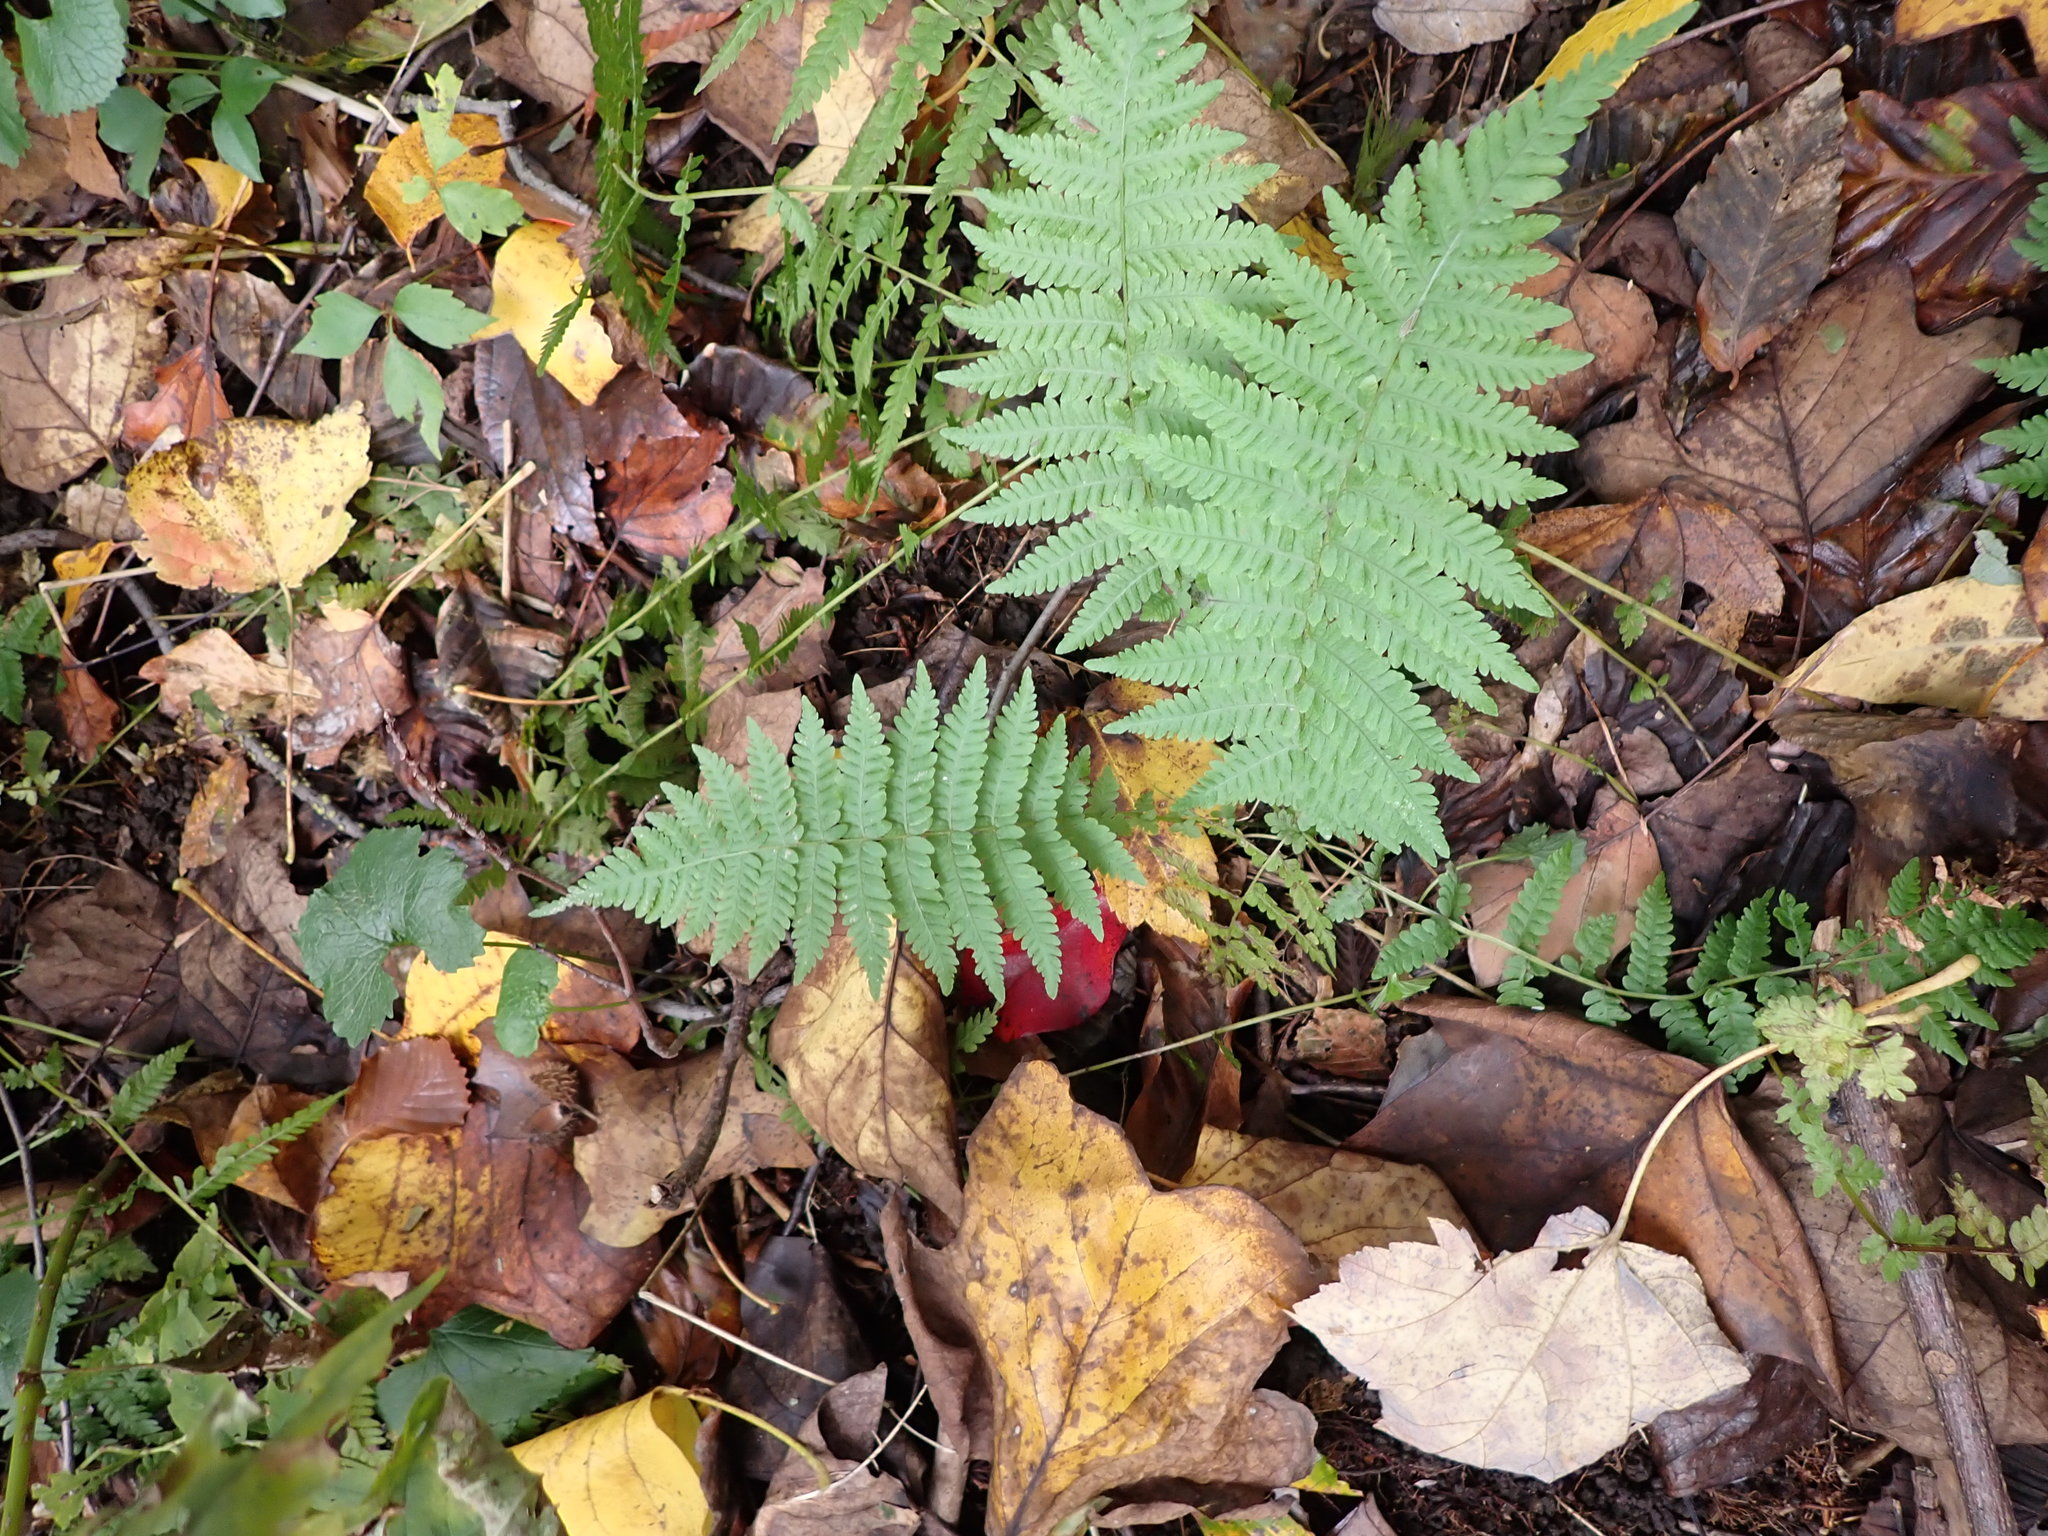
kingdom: Plantae
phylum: Tracheophyta
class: Polypodiopsida
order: Polypodiales
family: Thelypteridaceae
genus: Amauropelta
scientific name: Amauropelta noveboracensis
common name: New york fern
